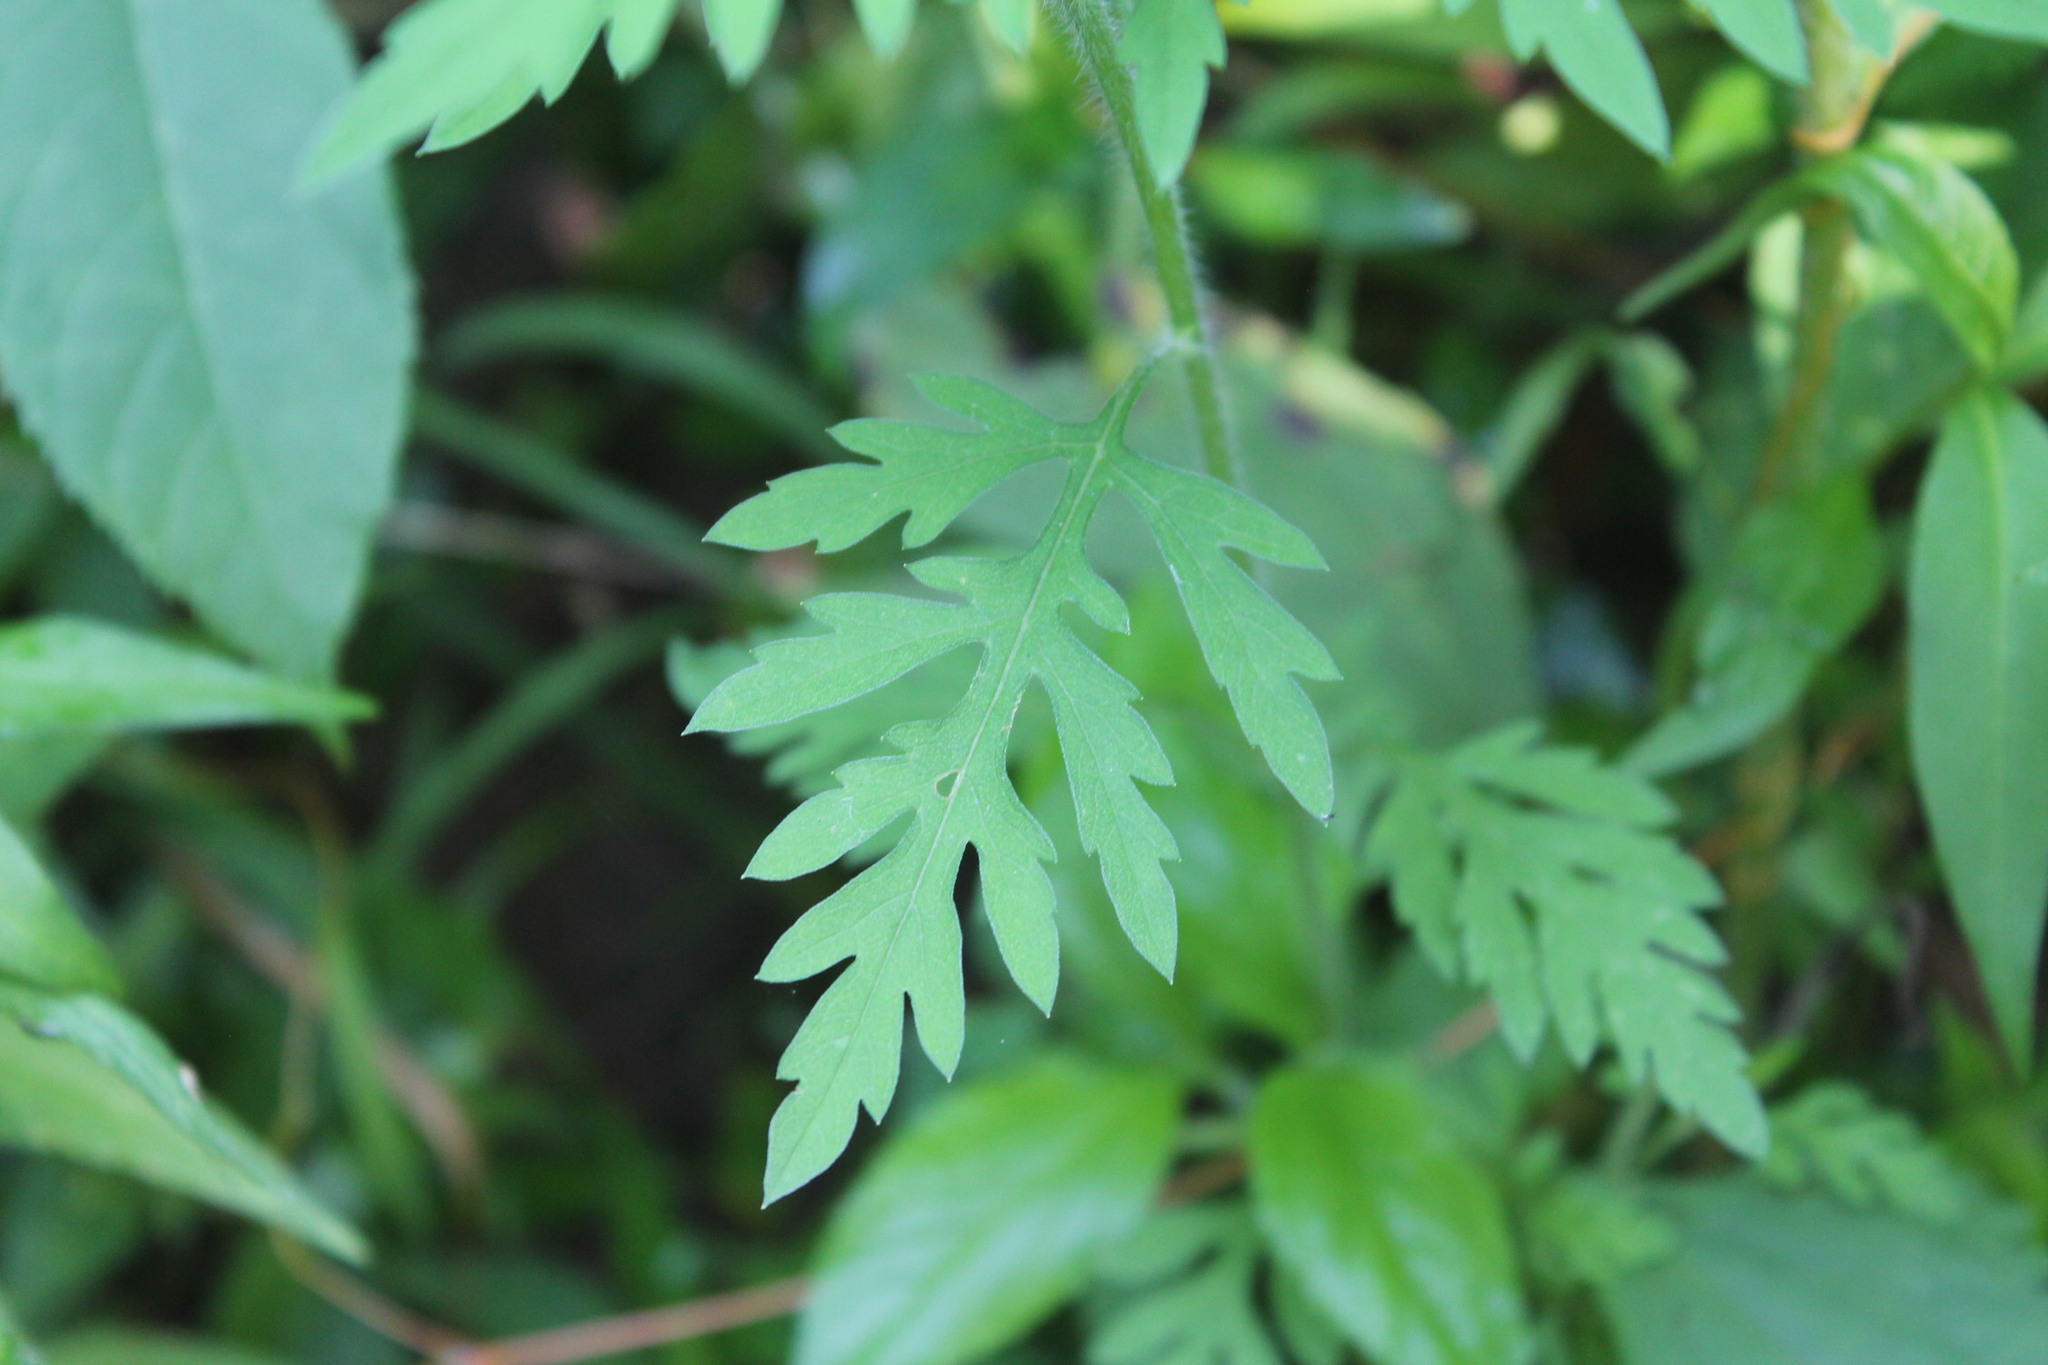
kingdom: Plantae
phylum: Tracheophyta
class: Magnoliopsida
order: Asterales
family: Asteraceae
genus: Ambrosia
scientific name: Ambrosia artemisiifolia
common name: Annual ragweed
